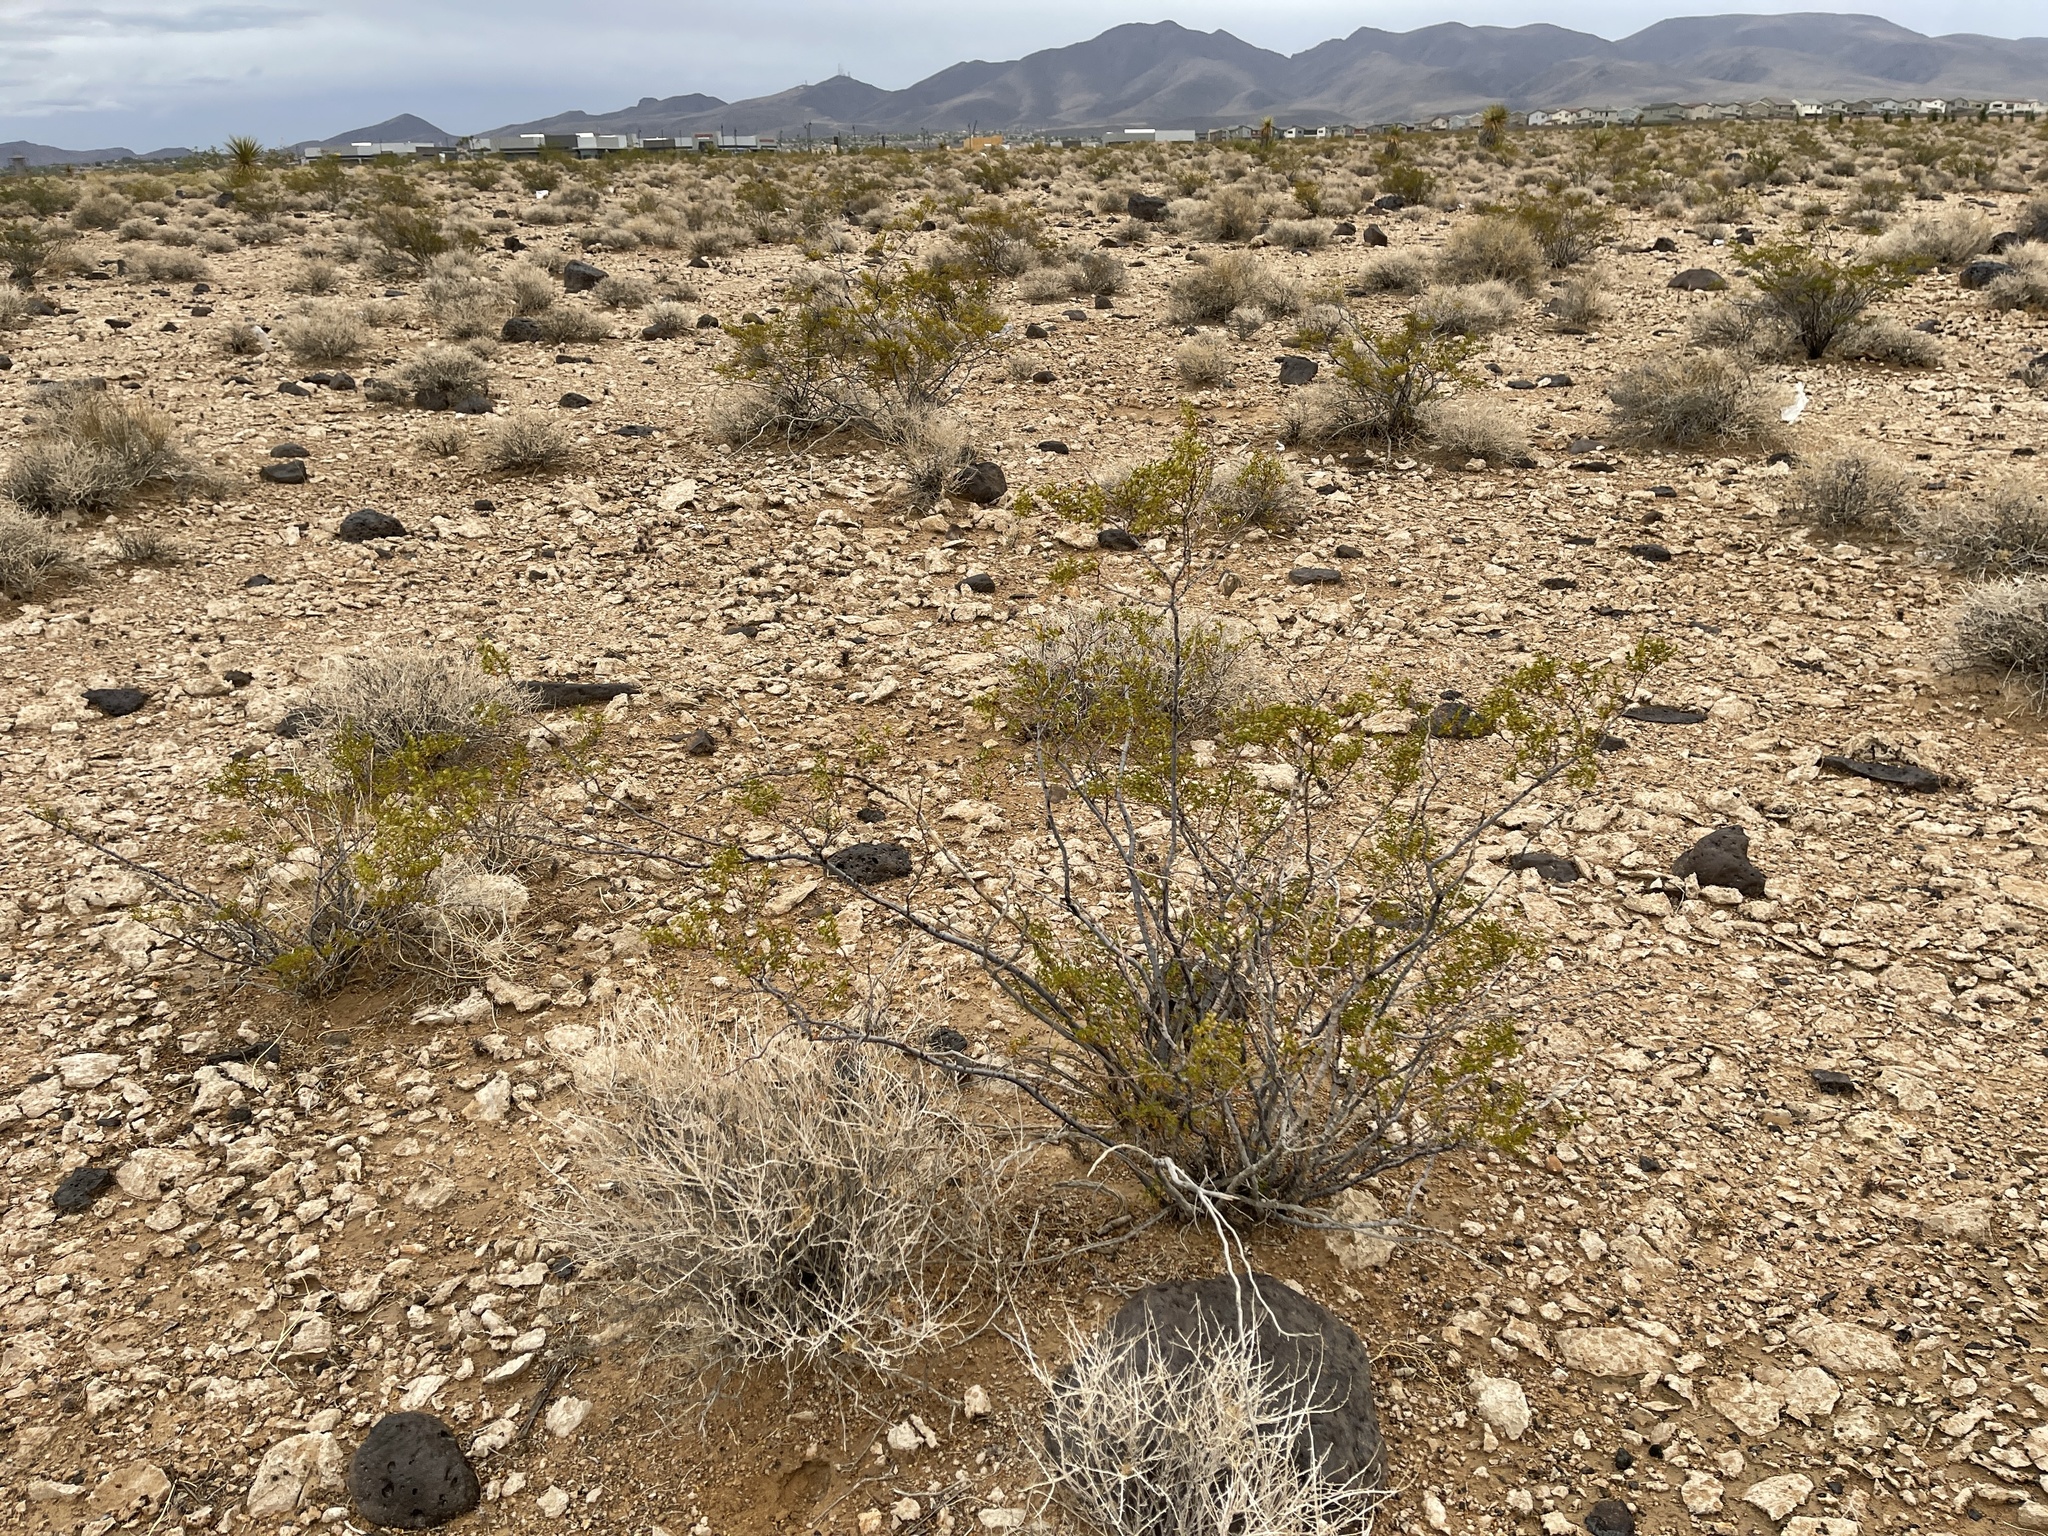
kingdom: Plantae
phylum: Tracheophyta
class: Magnoliopsida
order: Zygophyllales
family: Zygophyllaceae
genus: Larrea
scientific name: Larrea tridentata
